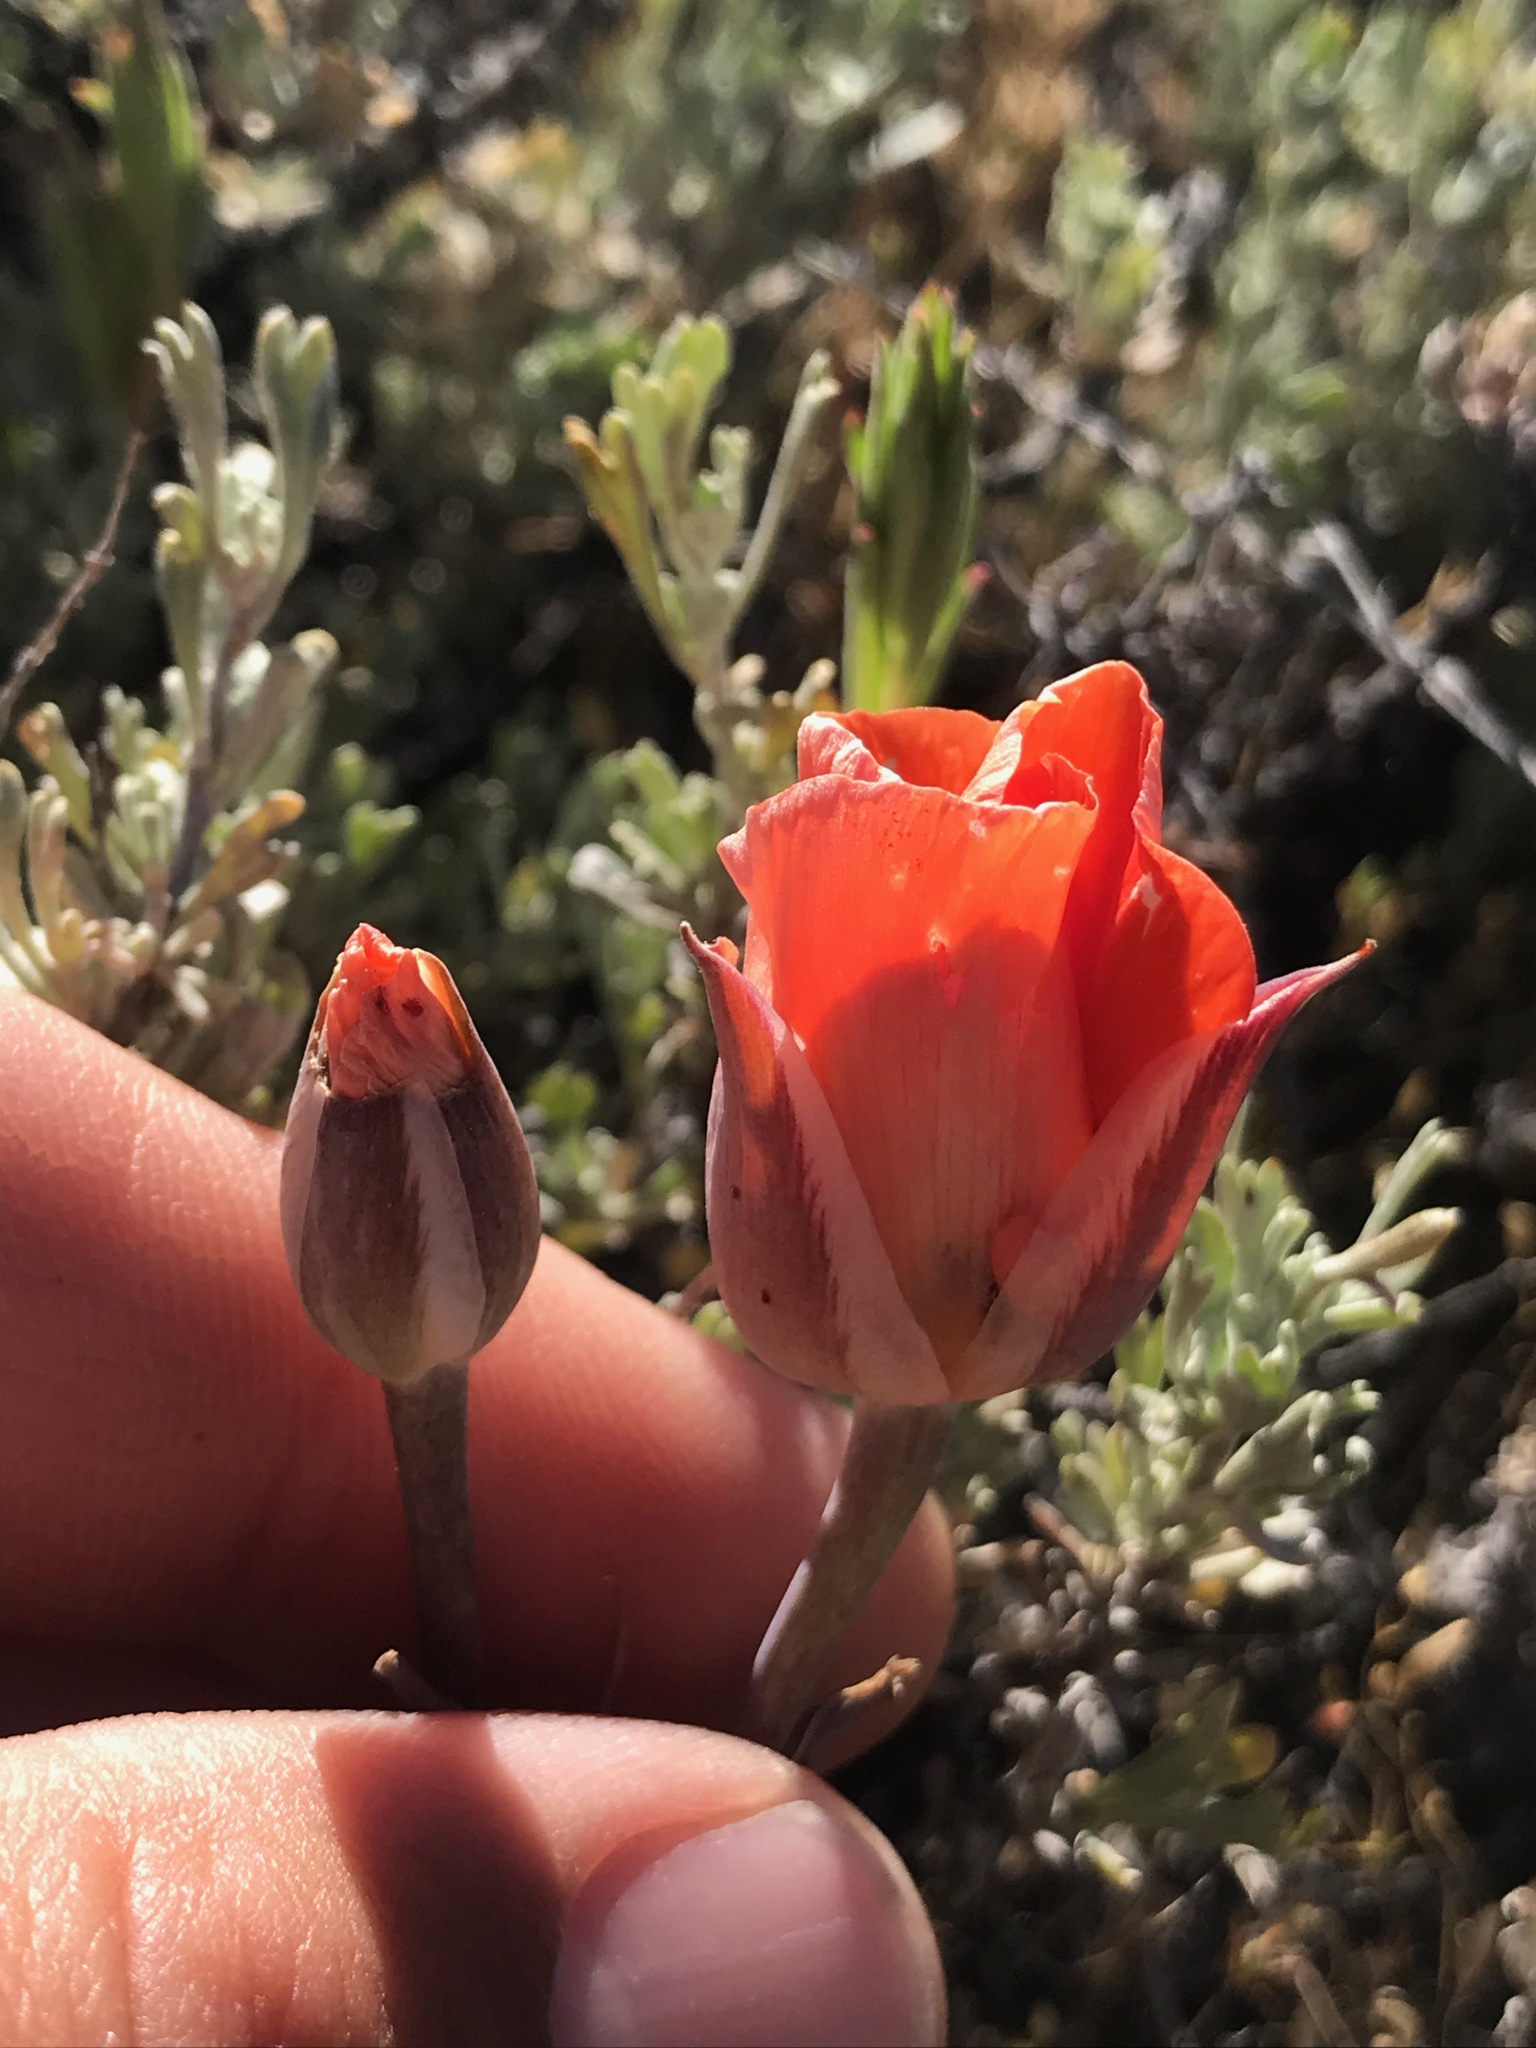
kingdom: Plantae
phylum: Tracheophyta
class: Liliopsida
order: Liliales
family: Liliaceae
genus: Calochortus
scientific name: Calochortus kennedyi
